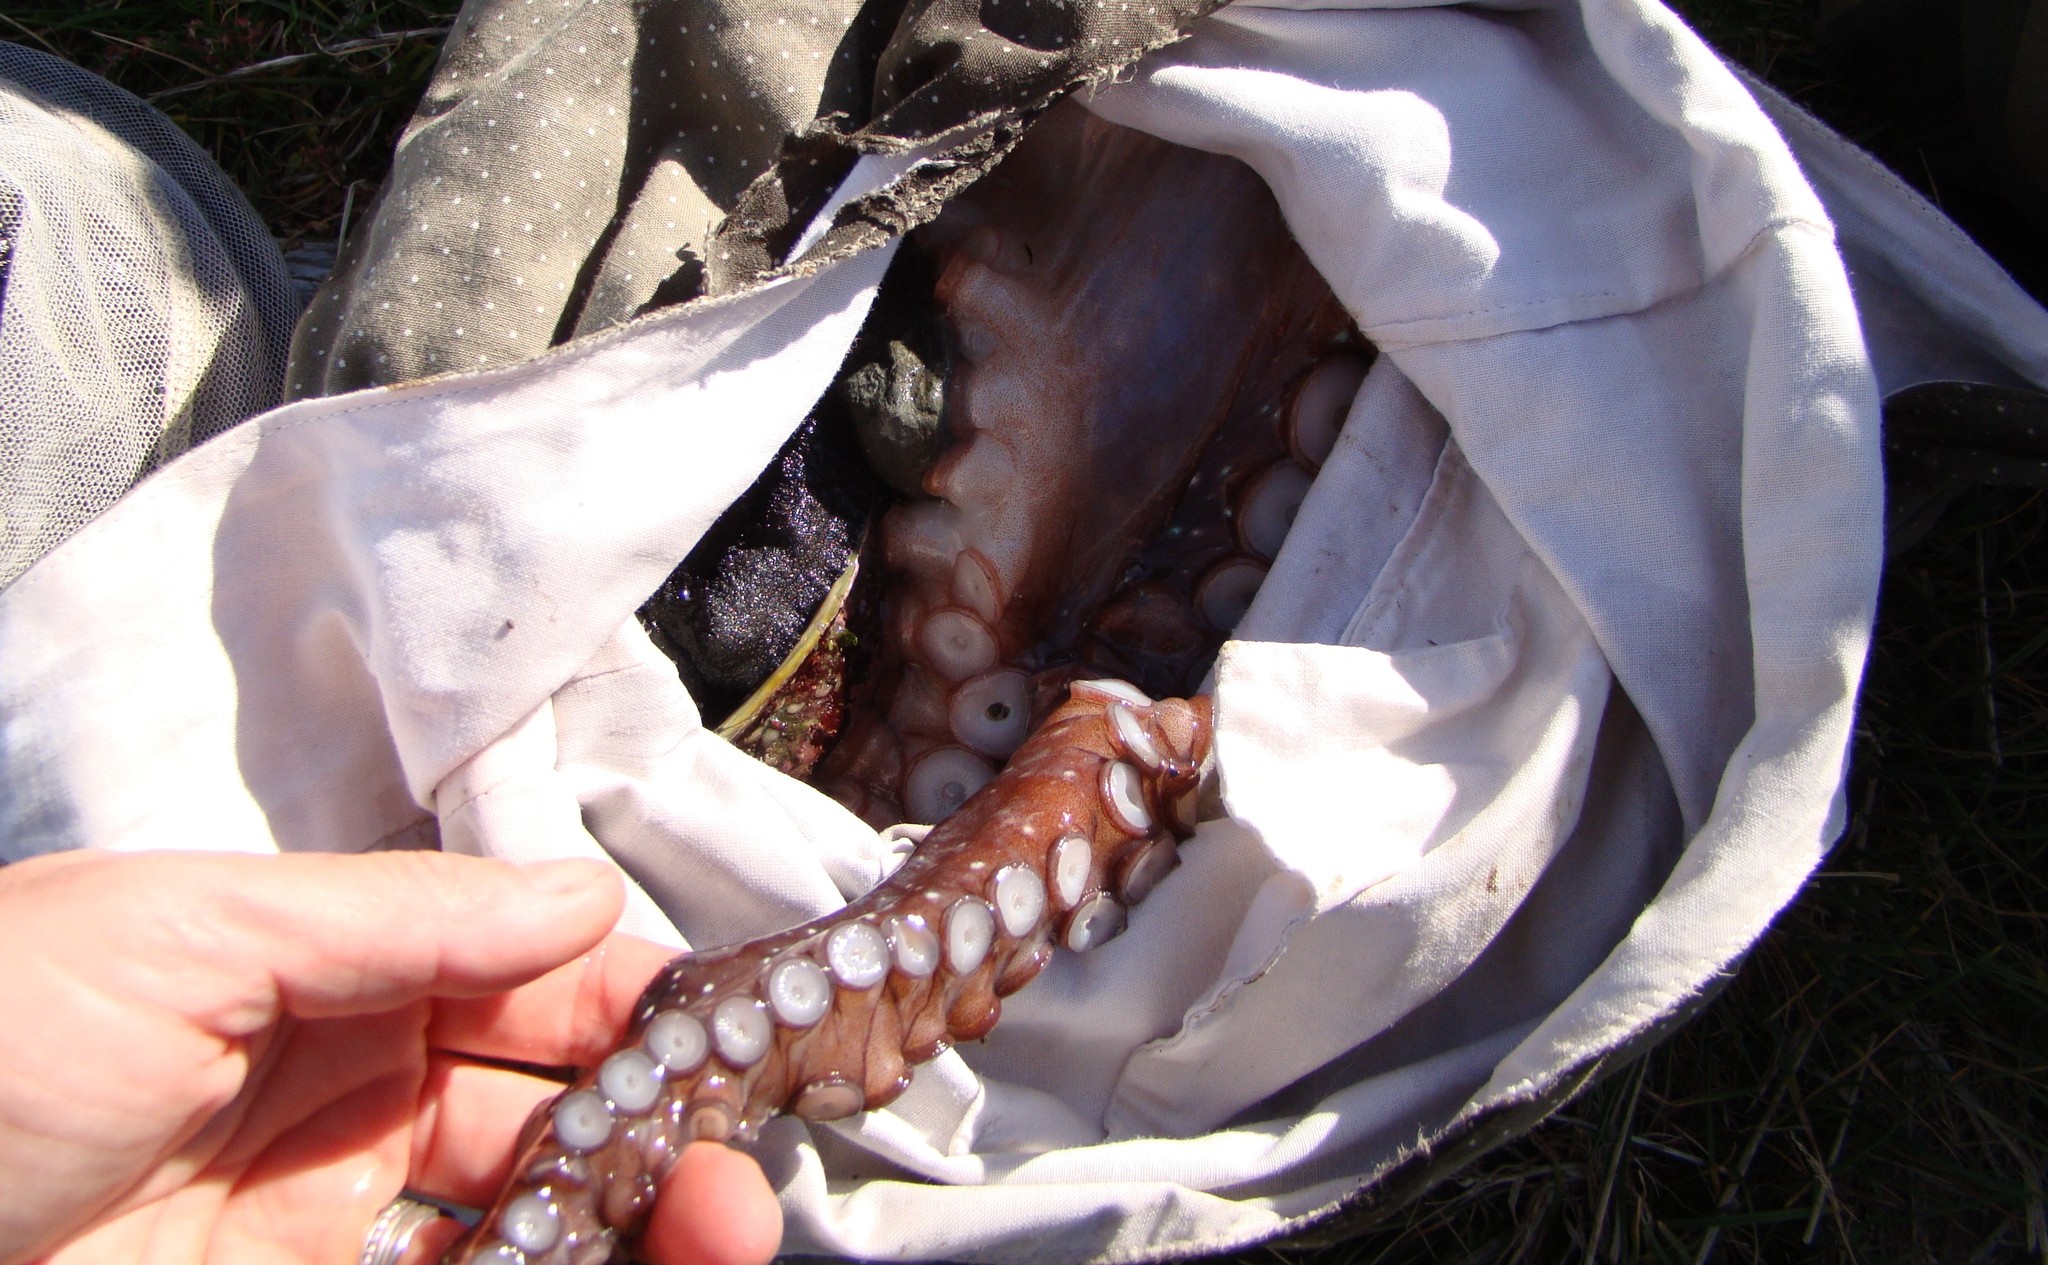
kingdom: Animalia
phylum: Mollusca
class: Cephalopoda
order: Octopoda
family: Octopodidae
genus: Macroctopus
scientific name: Macroctopus maorum
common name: Maori octopus
